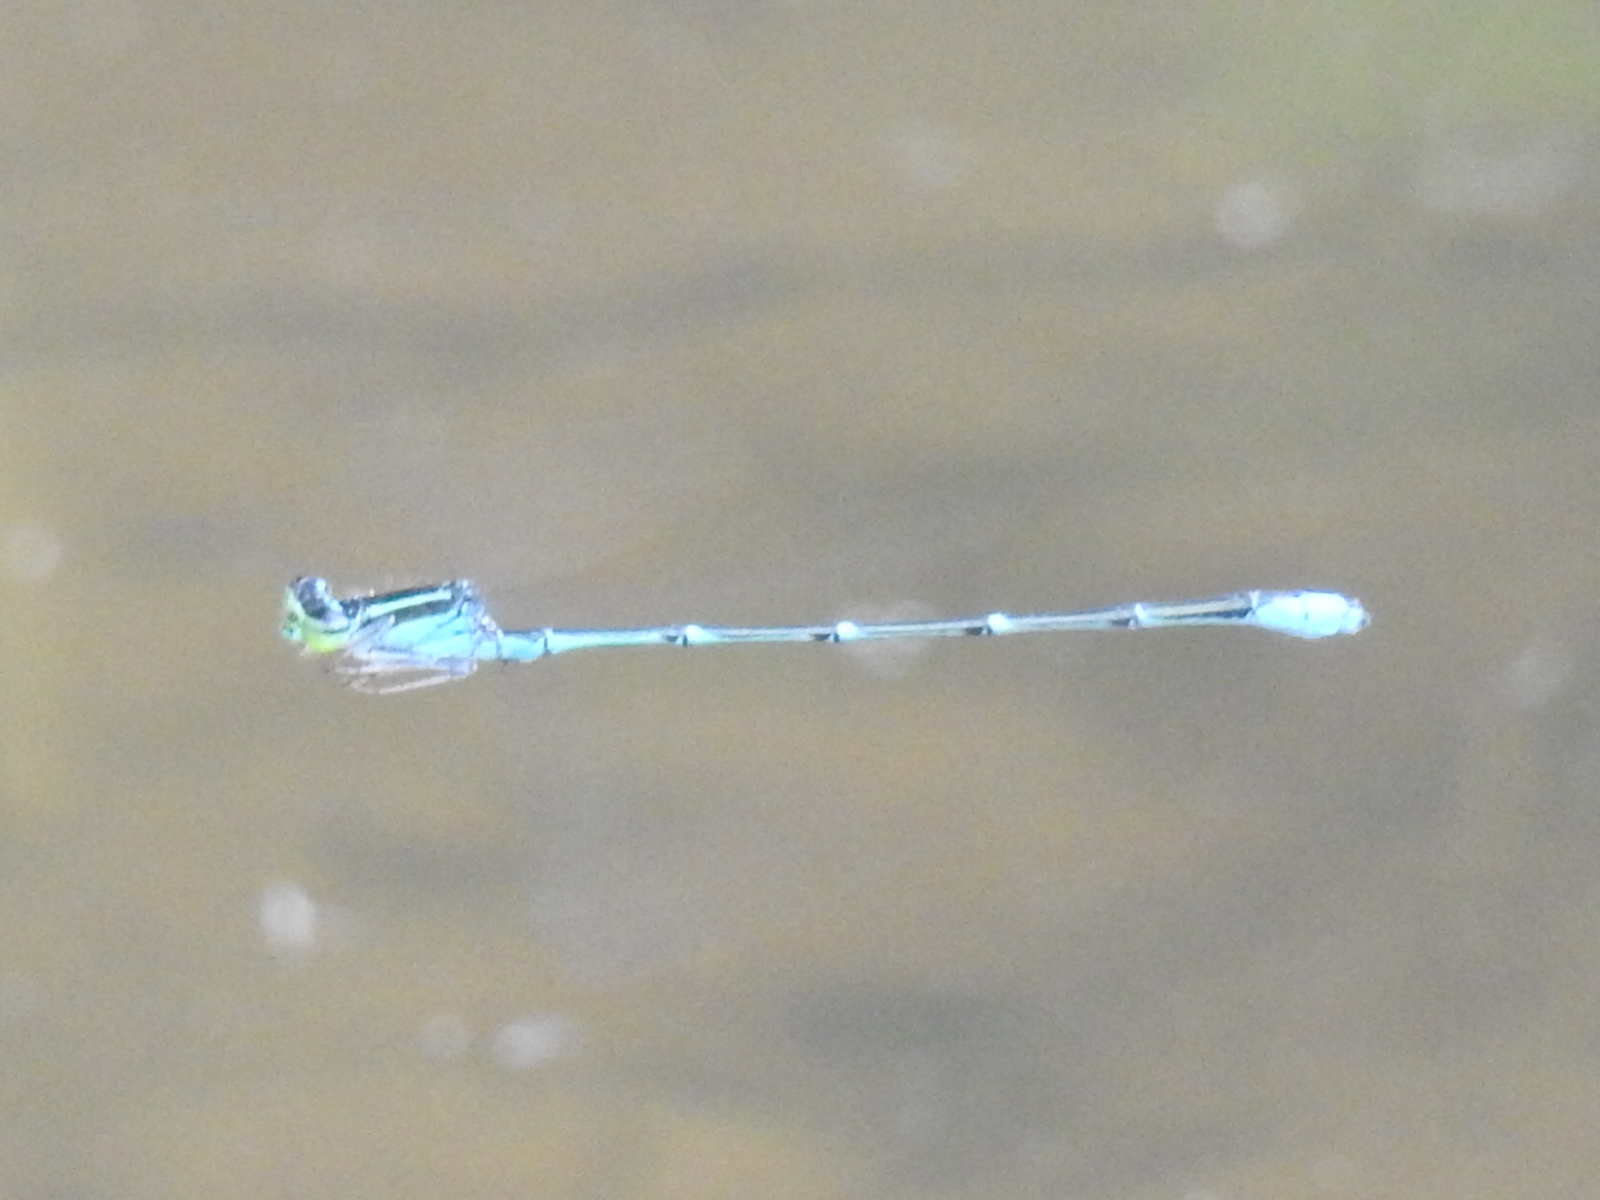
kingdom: Animalia
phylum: Arthropoda
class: Insecta
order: Odonata
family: Coenagrionidae
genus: Enallagma
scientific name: Enallagma exsulans
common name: Stream bluet
